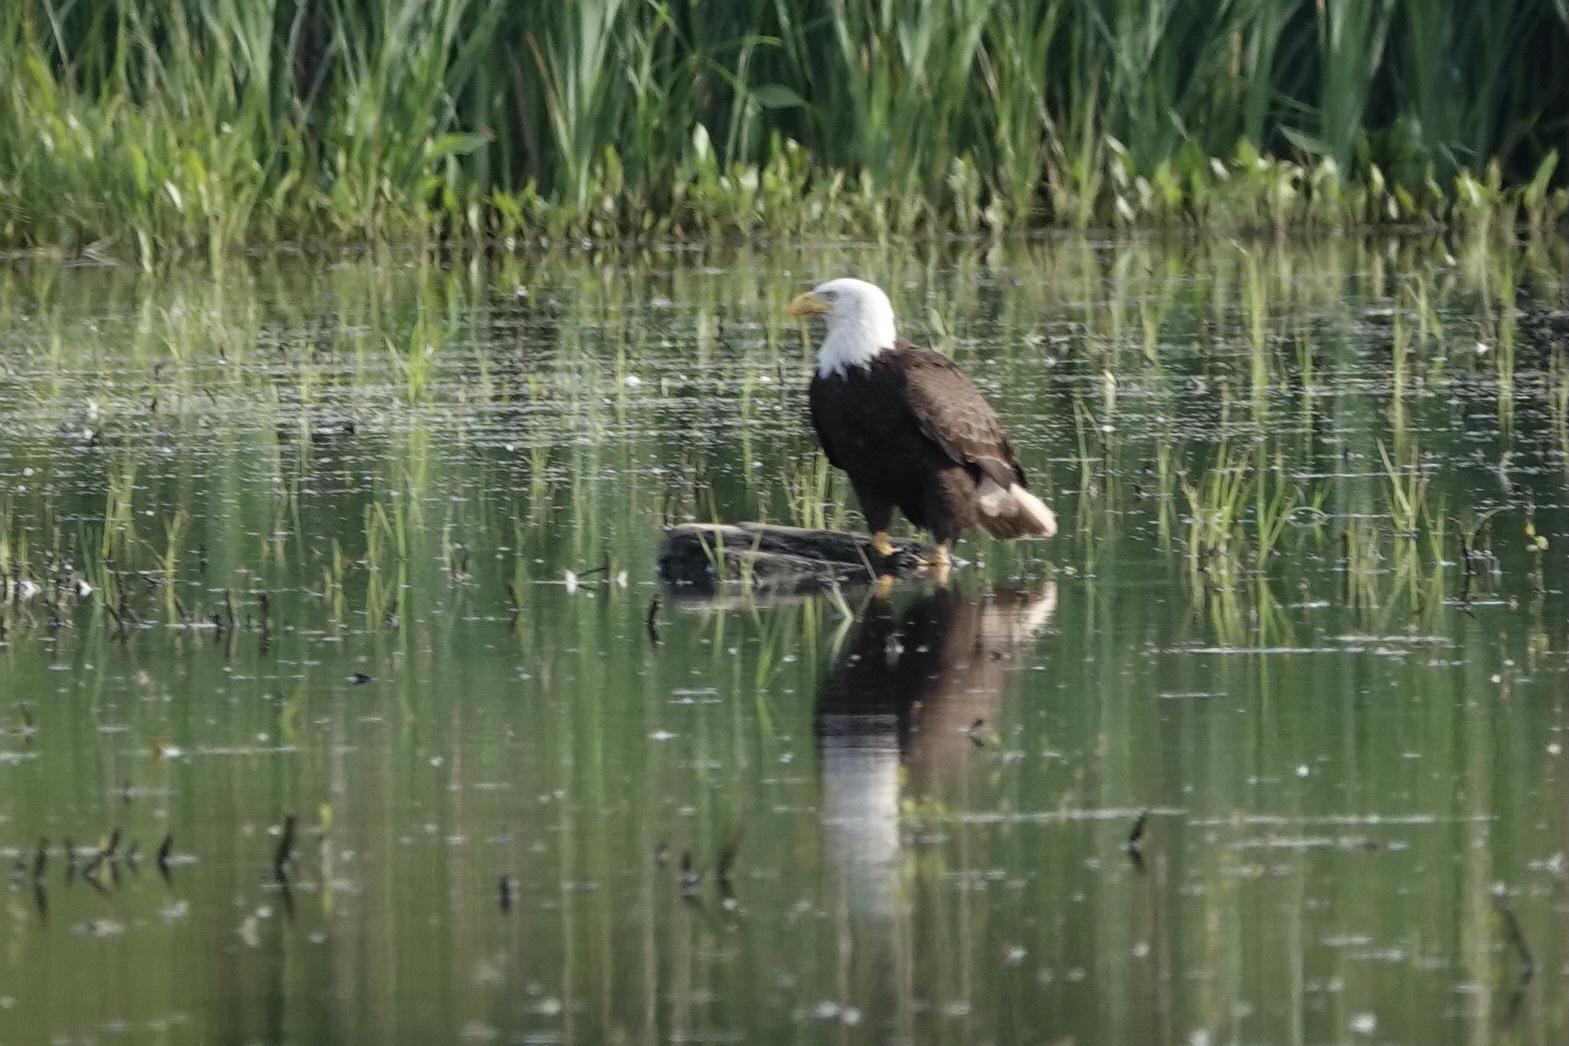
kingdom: Animalia
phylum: Chordata
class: Aves
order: Accipitriformes
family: Accipitridae
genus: Haliaeetus
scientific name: Haliaeetus leucocephalus
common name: Bald eagle
